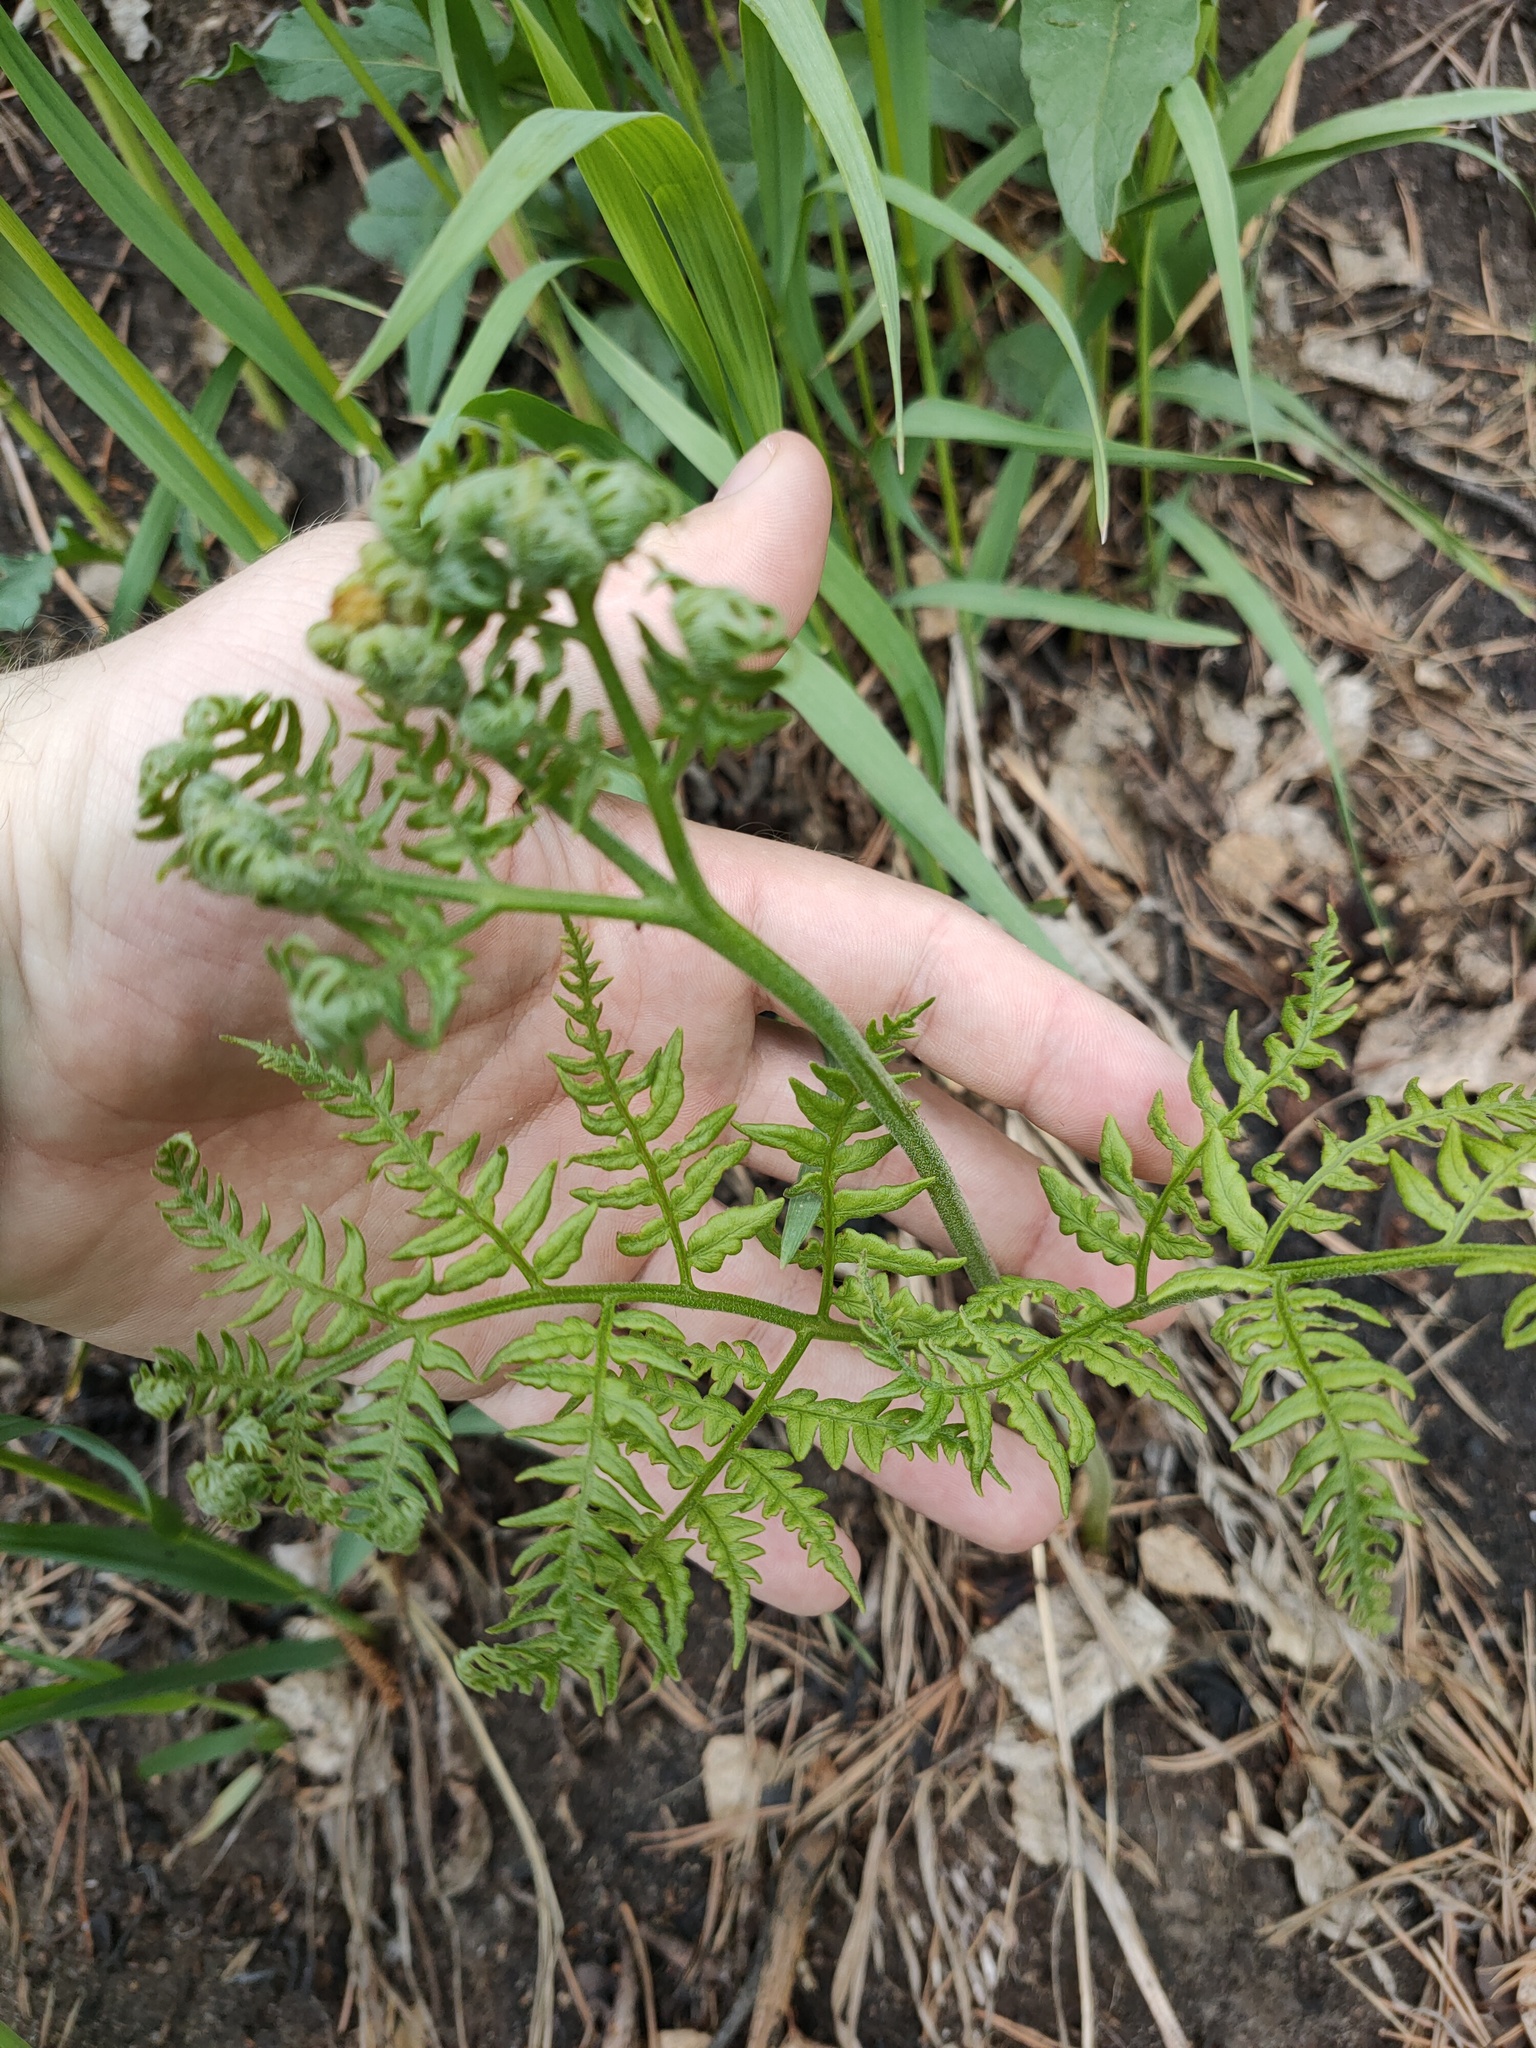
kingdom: Plantae
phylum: Tracheophyta
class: Polypodiopsida
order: Polypodiales
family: Dennstaedtiaceae
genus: Pteridium
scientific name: Pteridium aquilinum
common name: Bracken
